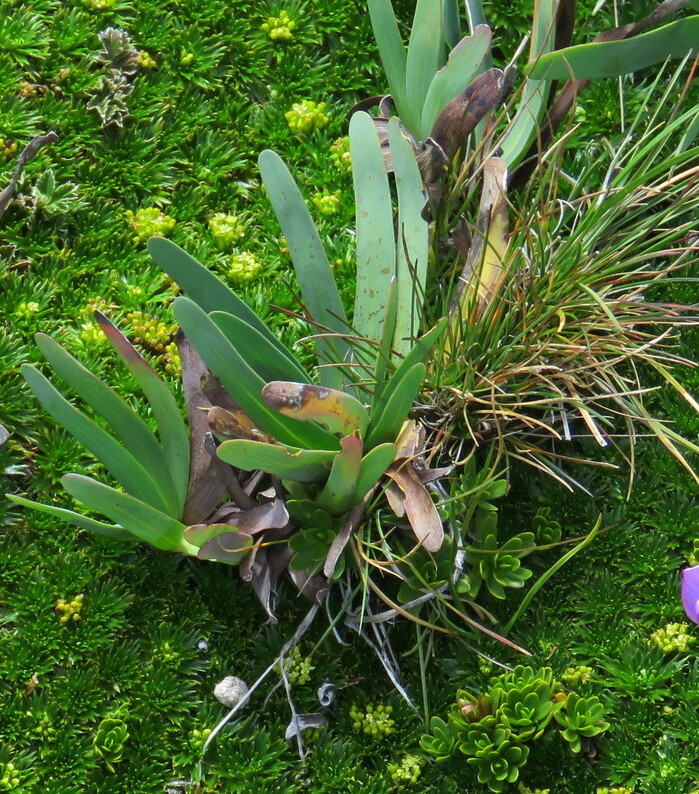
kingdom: Plantae
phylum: Tracheophyta
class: Magnoliopsida
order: Asterales
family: Asteraceae
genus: Rockhausenia
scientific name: Rockhausenia nubigena
